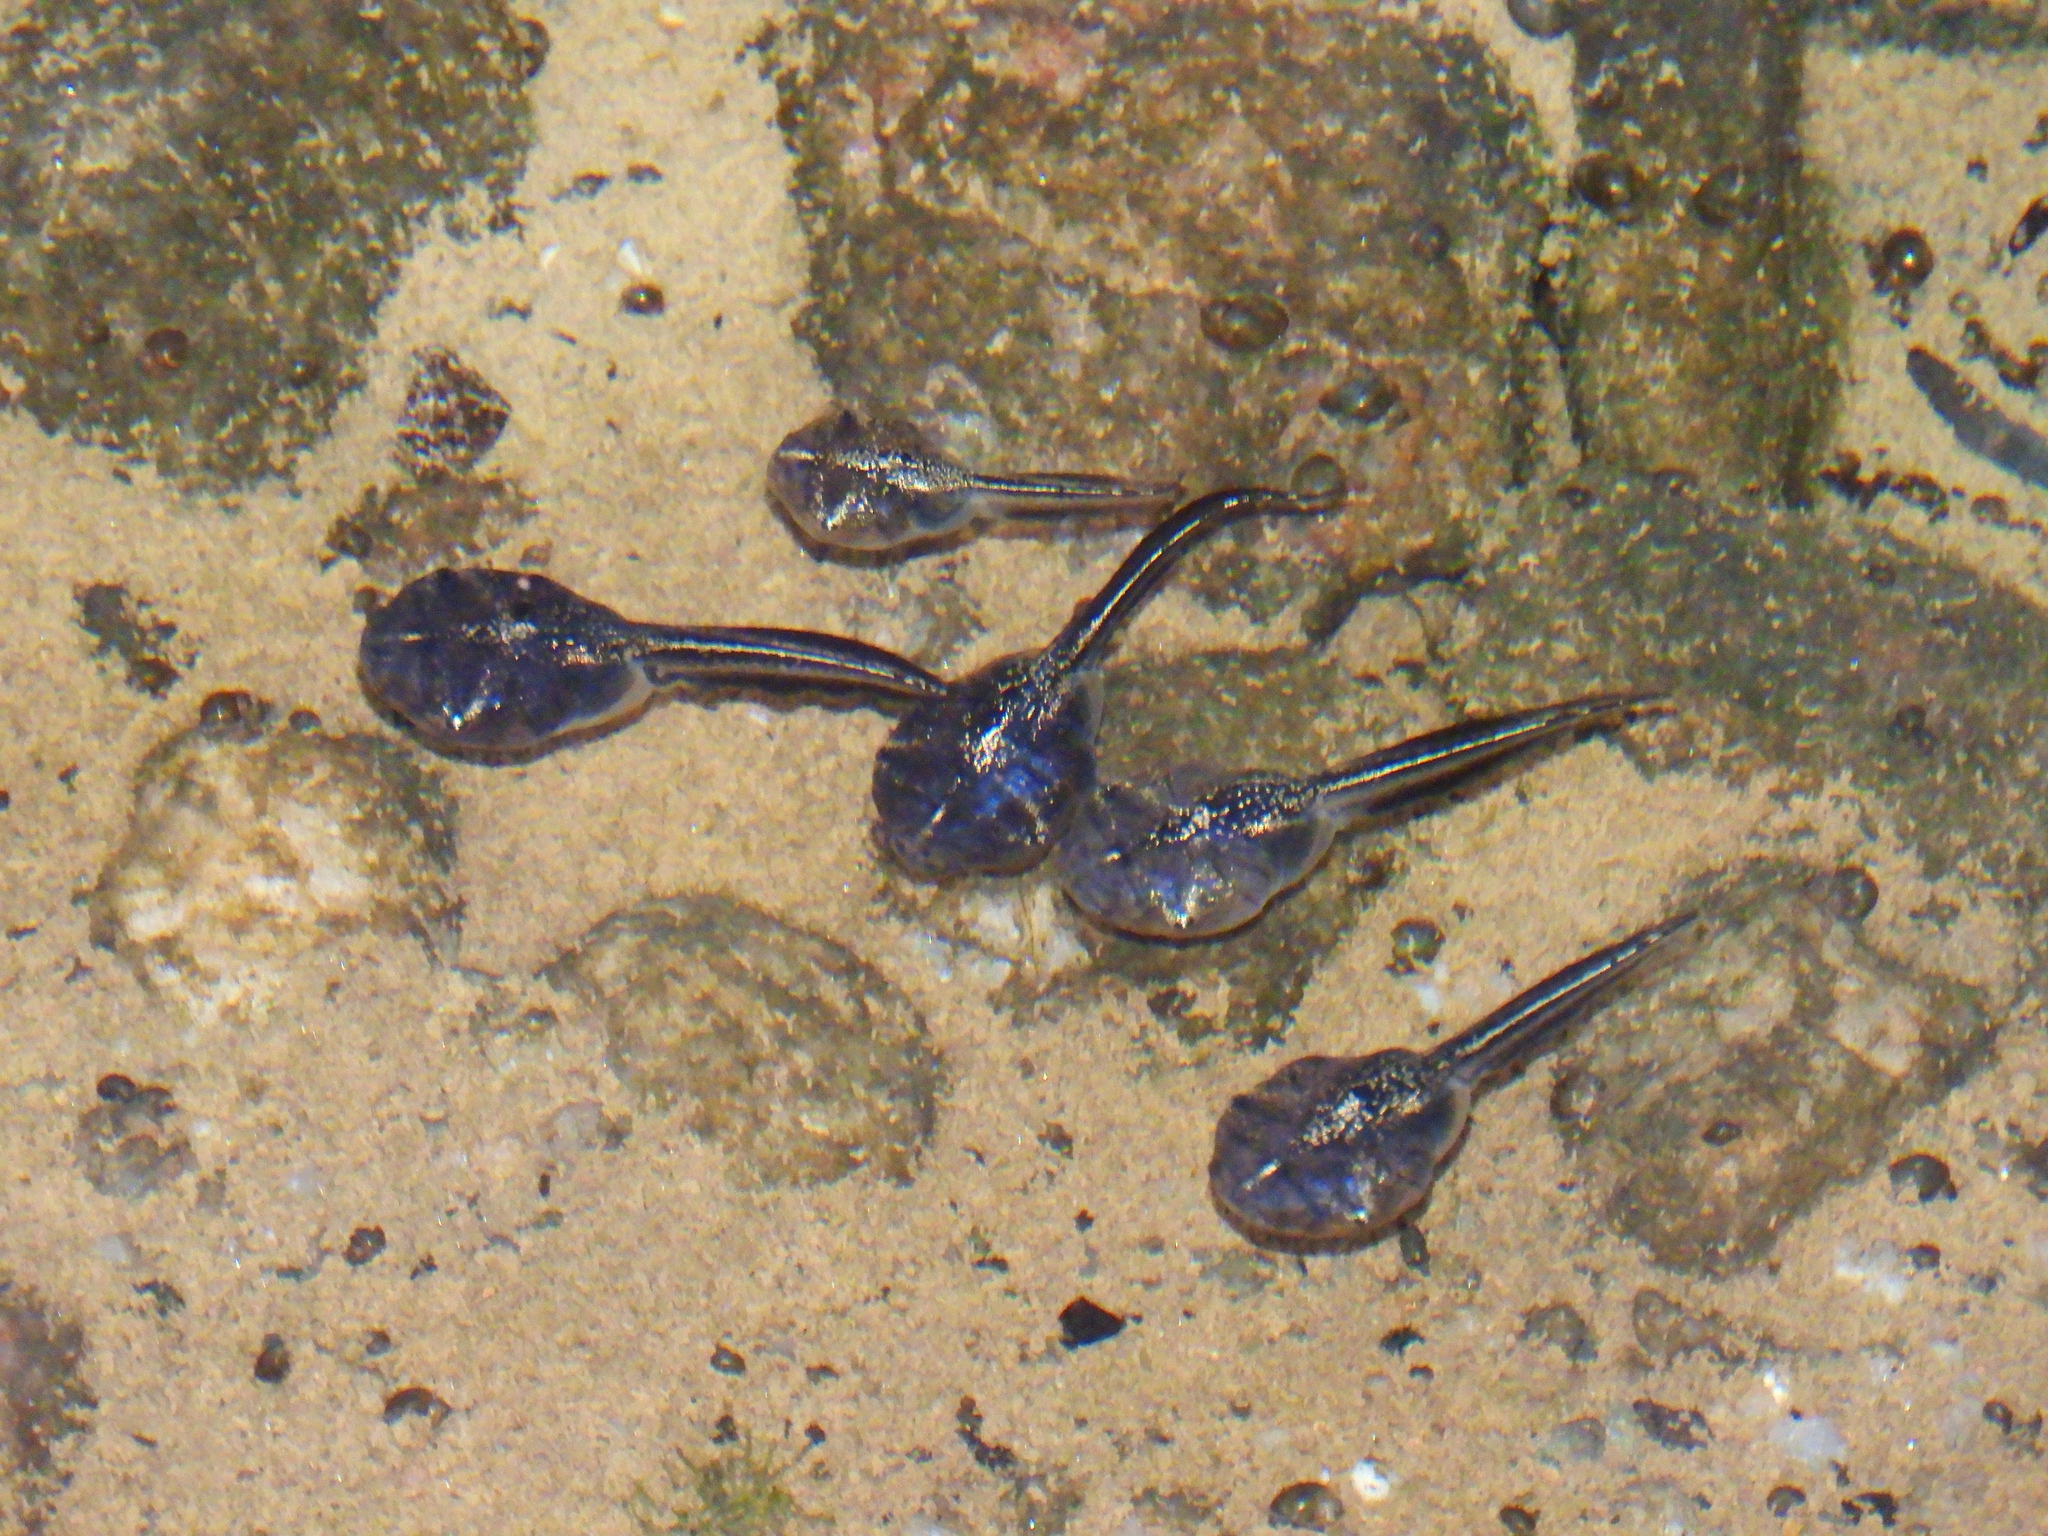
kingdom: Animalia
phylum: Chordata
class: Amphibia
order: Anura
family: Microhylidae
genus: Phrynomantis
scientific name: Phrynomantis annectens
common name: Marbled rubber frog
